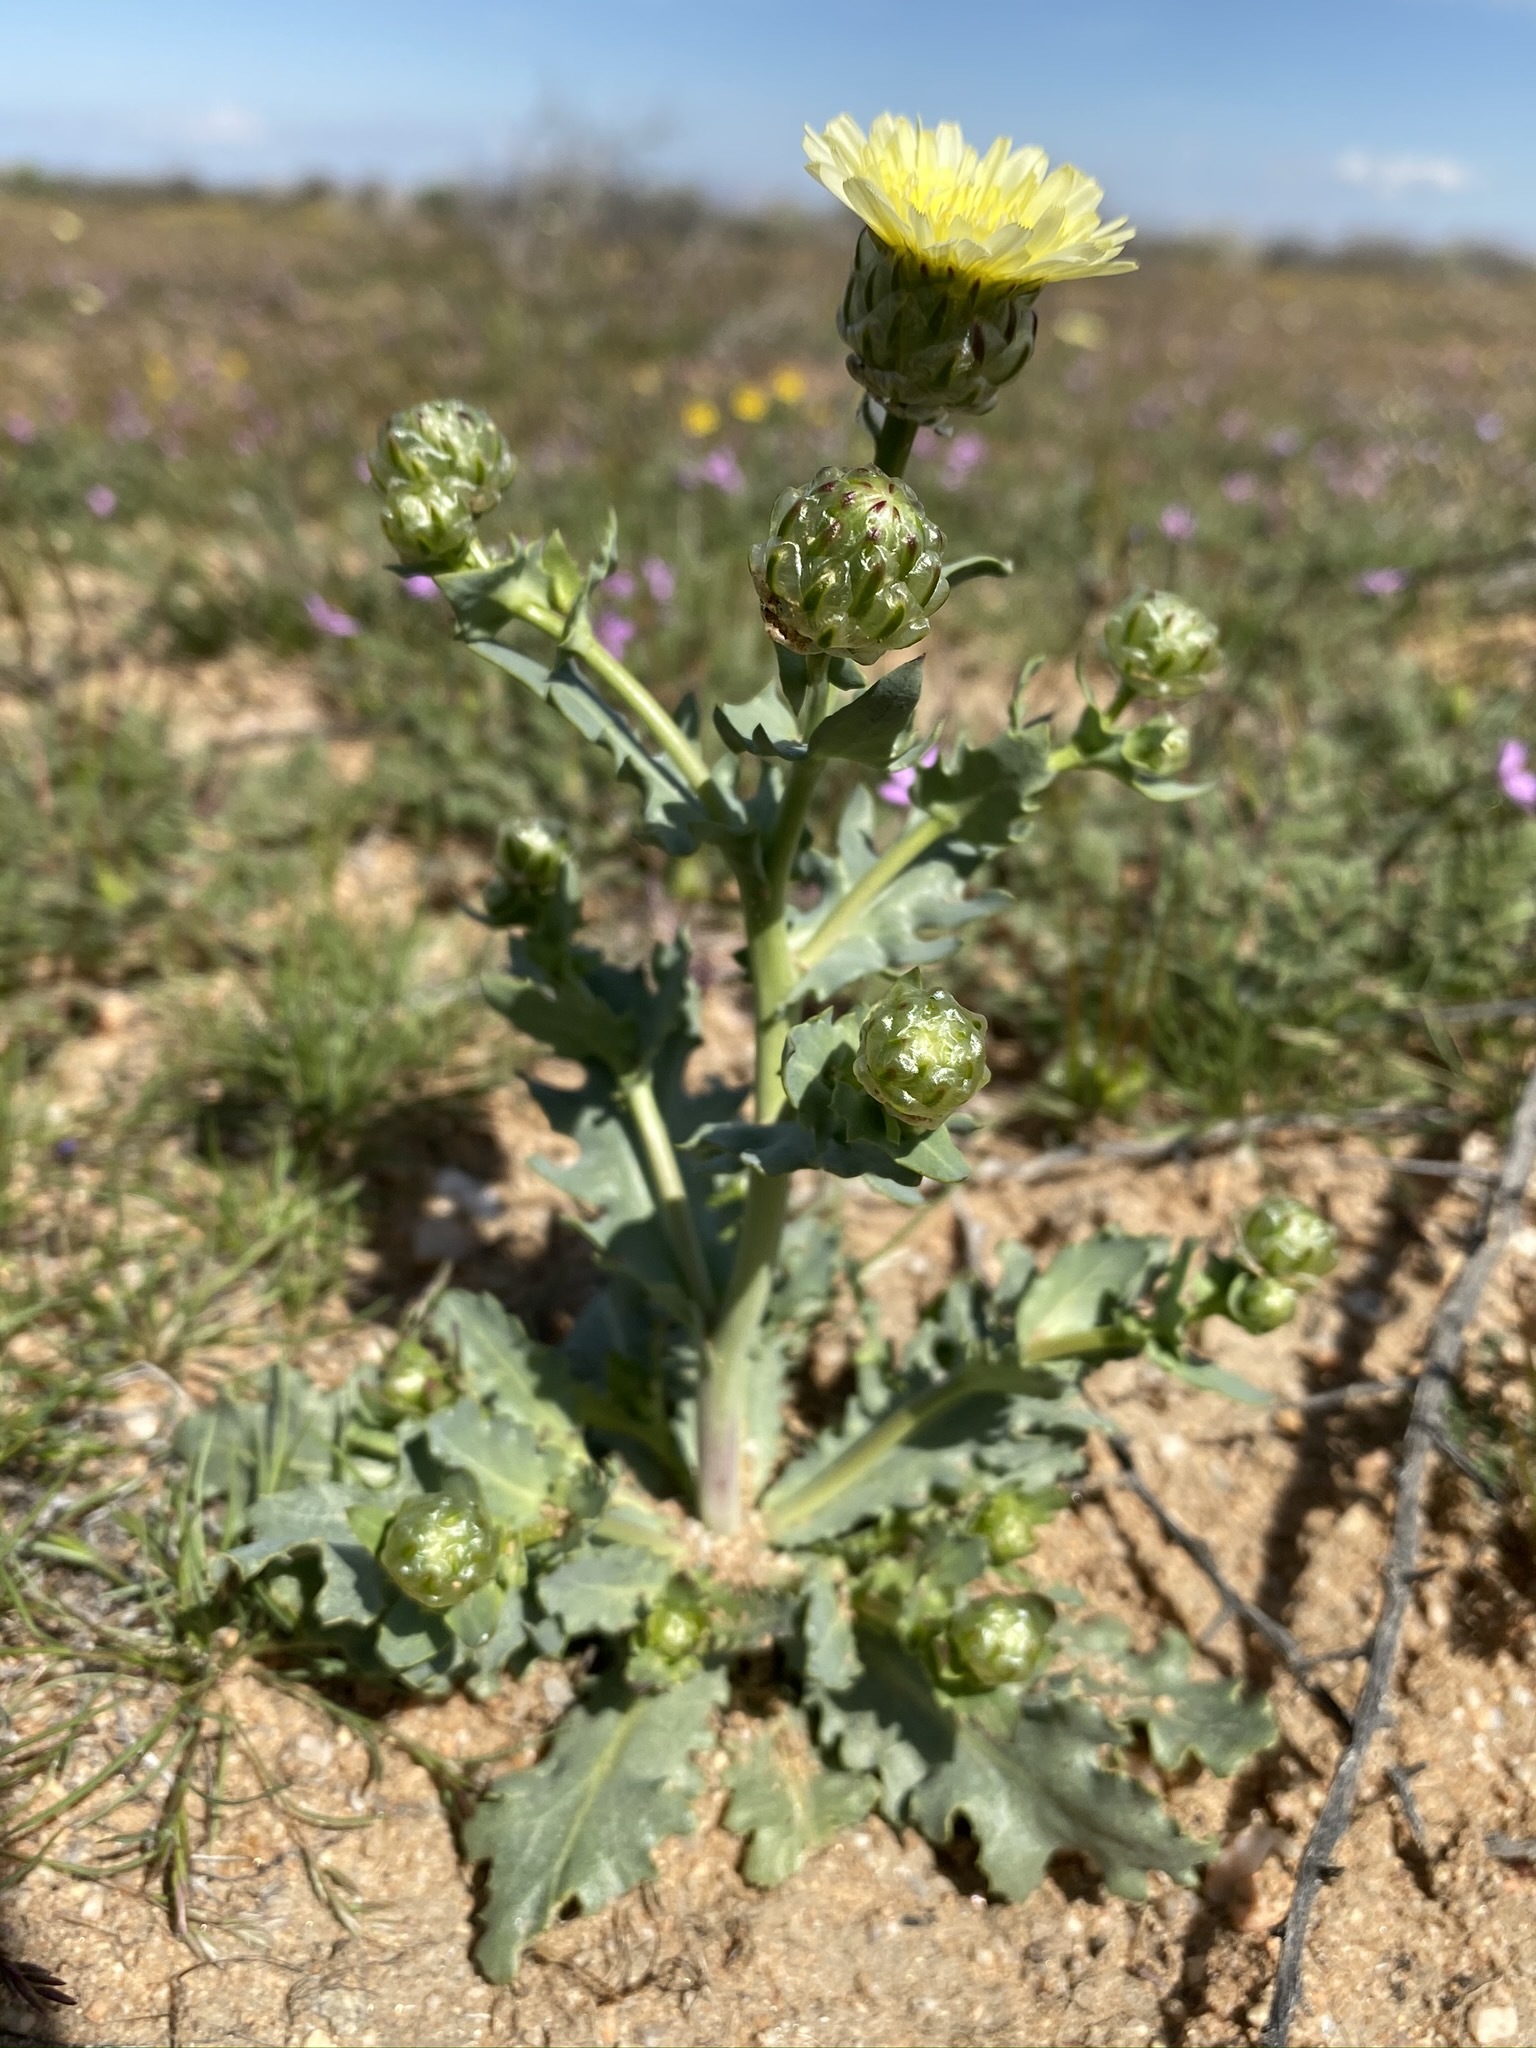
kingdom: Plantae
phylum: Tracheophyta
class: Magnoliopsida
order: Asterales
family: Asteraceae
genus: Malacothrix
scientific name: Malacothrix coulteri
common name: Snake's-head
